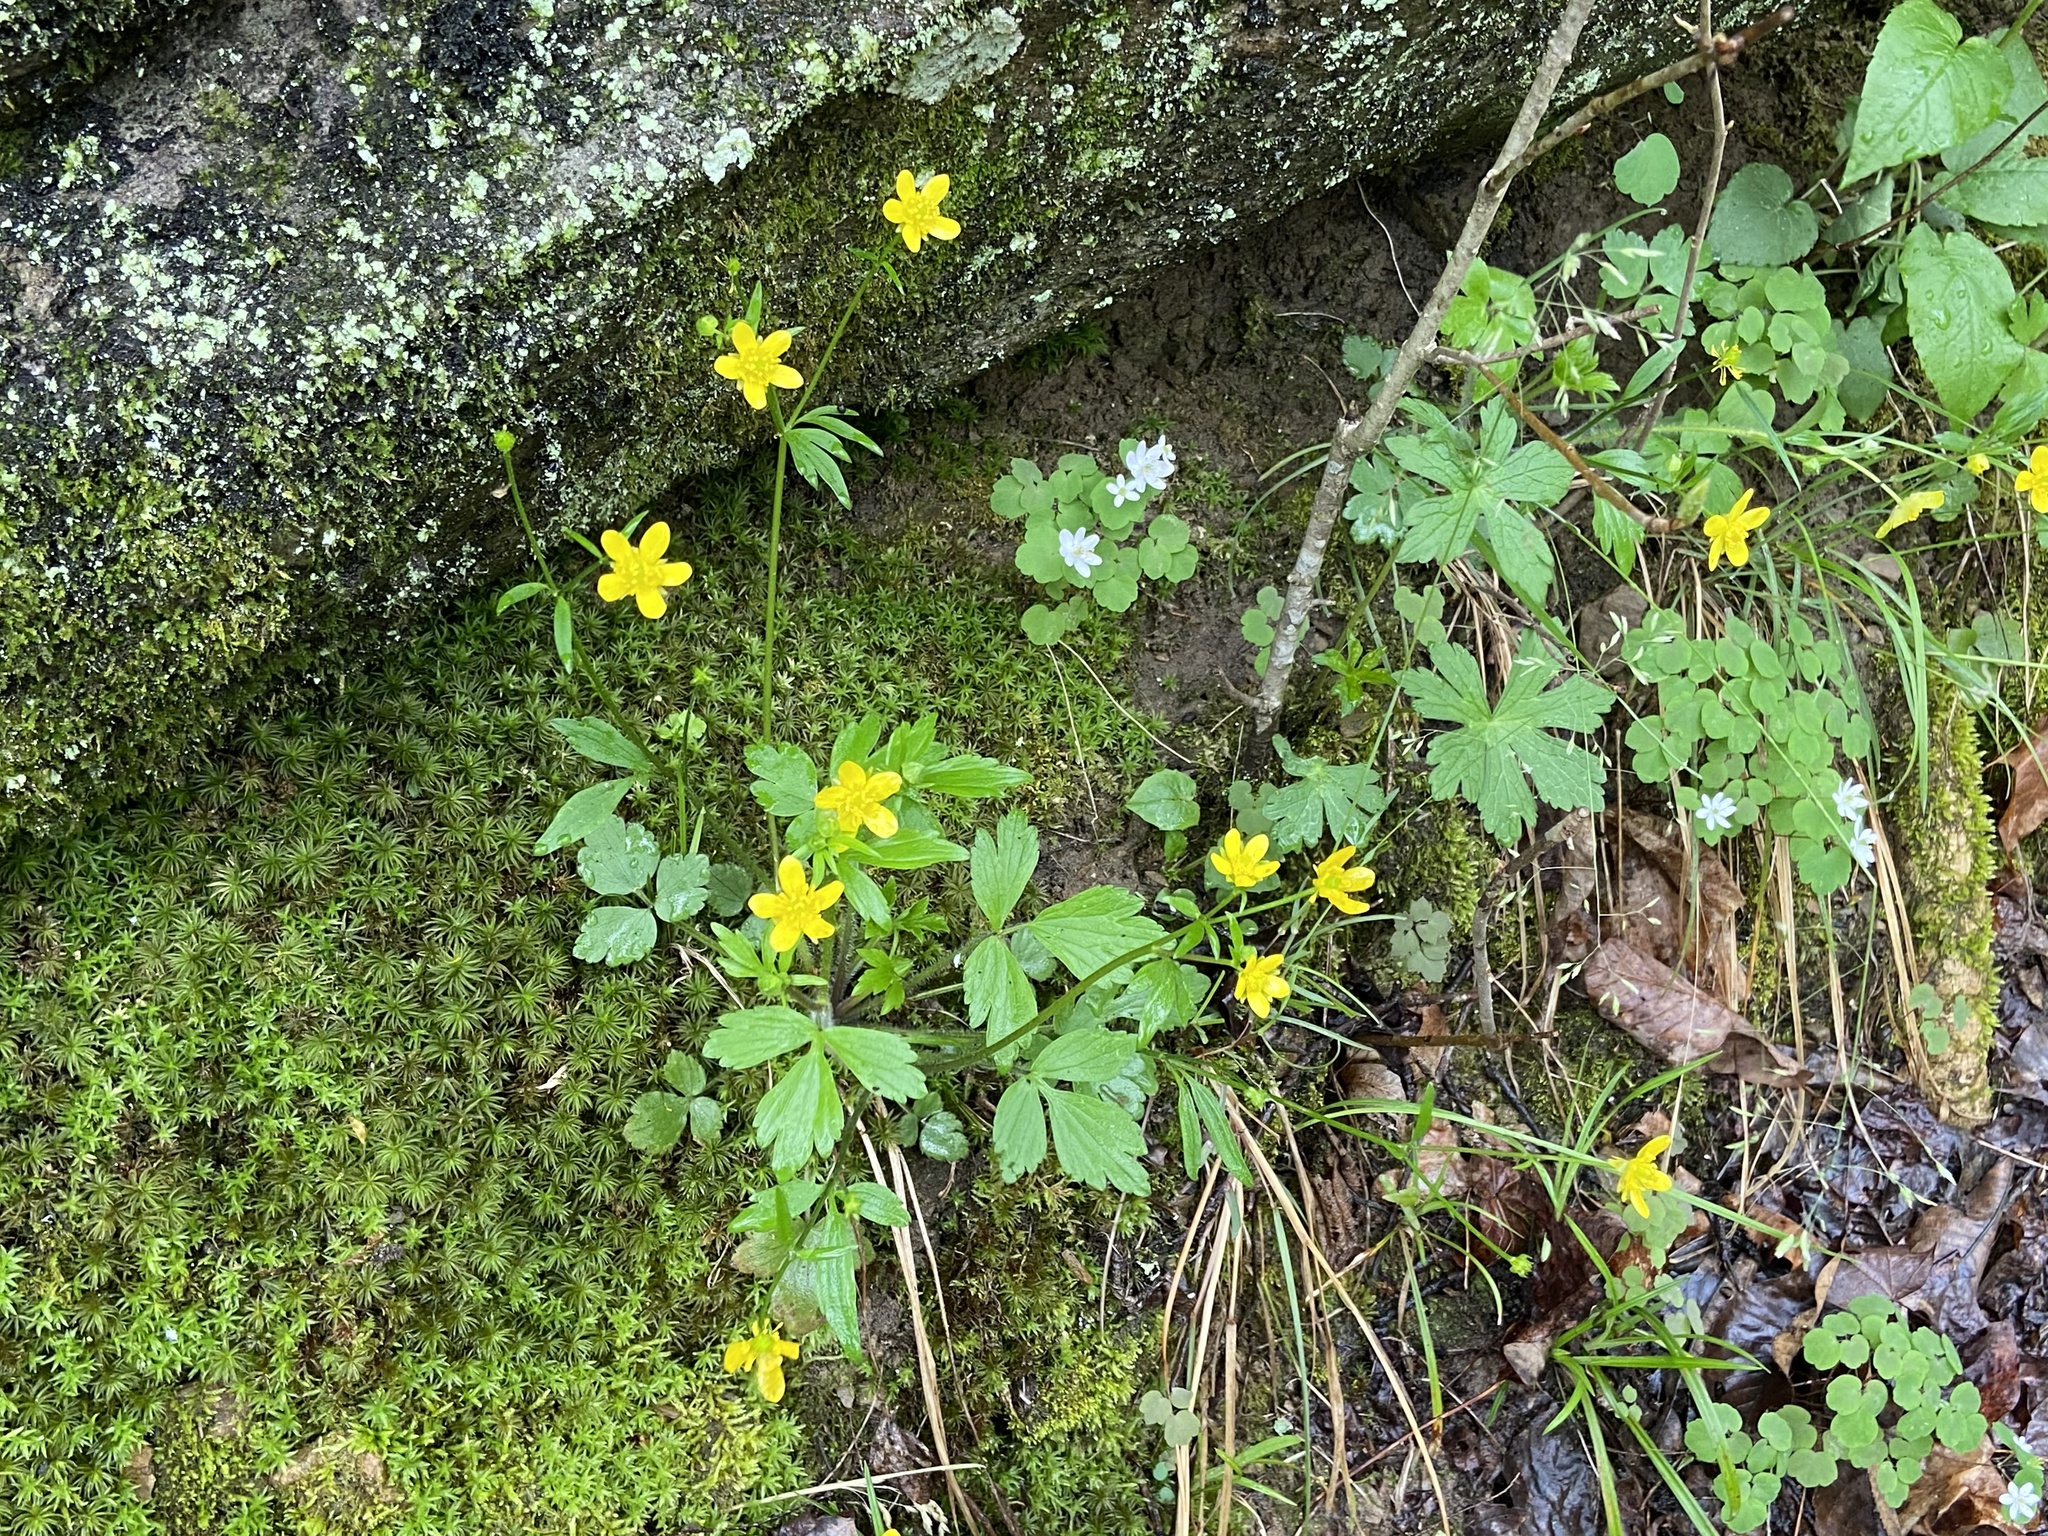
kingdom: Plantae
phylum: Tracheophyta
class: Magnoliopsida
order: Ranunculales
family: Ranunculaceae
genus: Ranunculus
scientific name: Ranunculus hispidus
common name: Bristly buttercup
